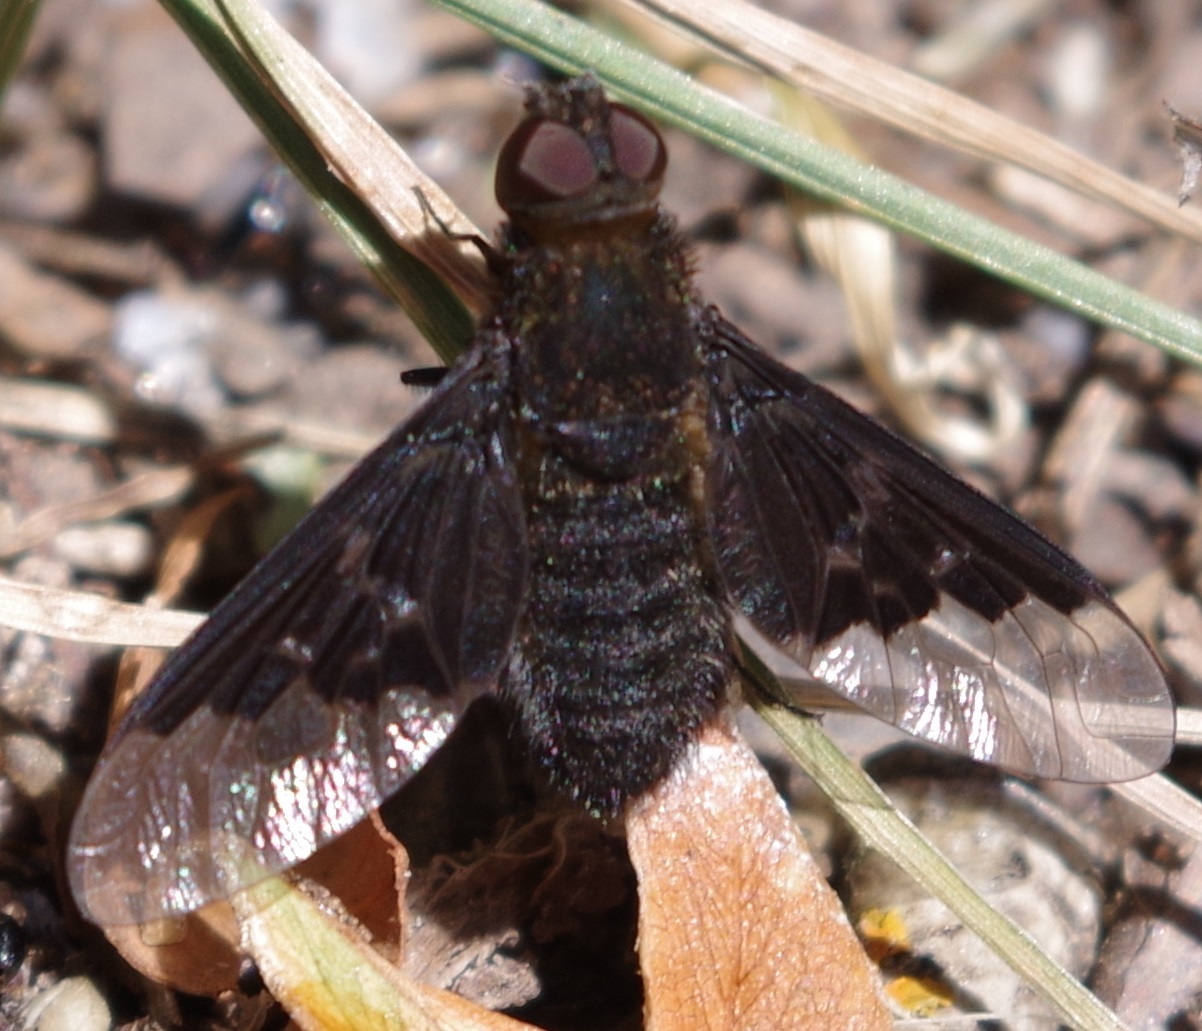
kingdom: Animalia
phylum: Arthropoda
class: Insecta
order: Diptera
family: Bombyliidae
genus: Hemipenthes
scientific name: Hemipenthes morio
